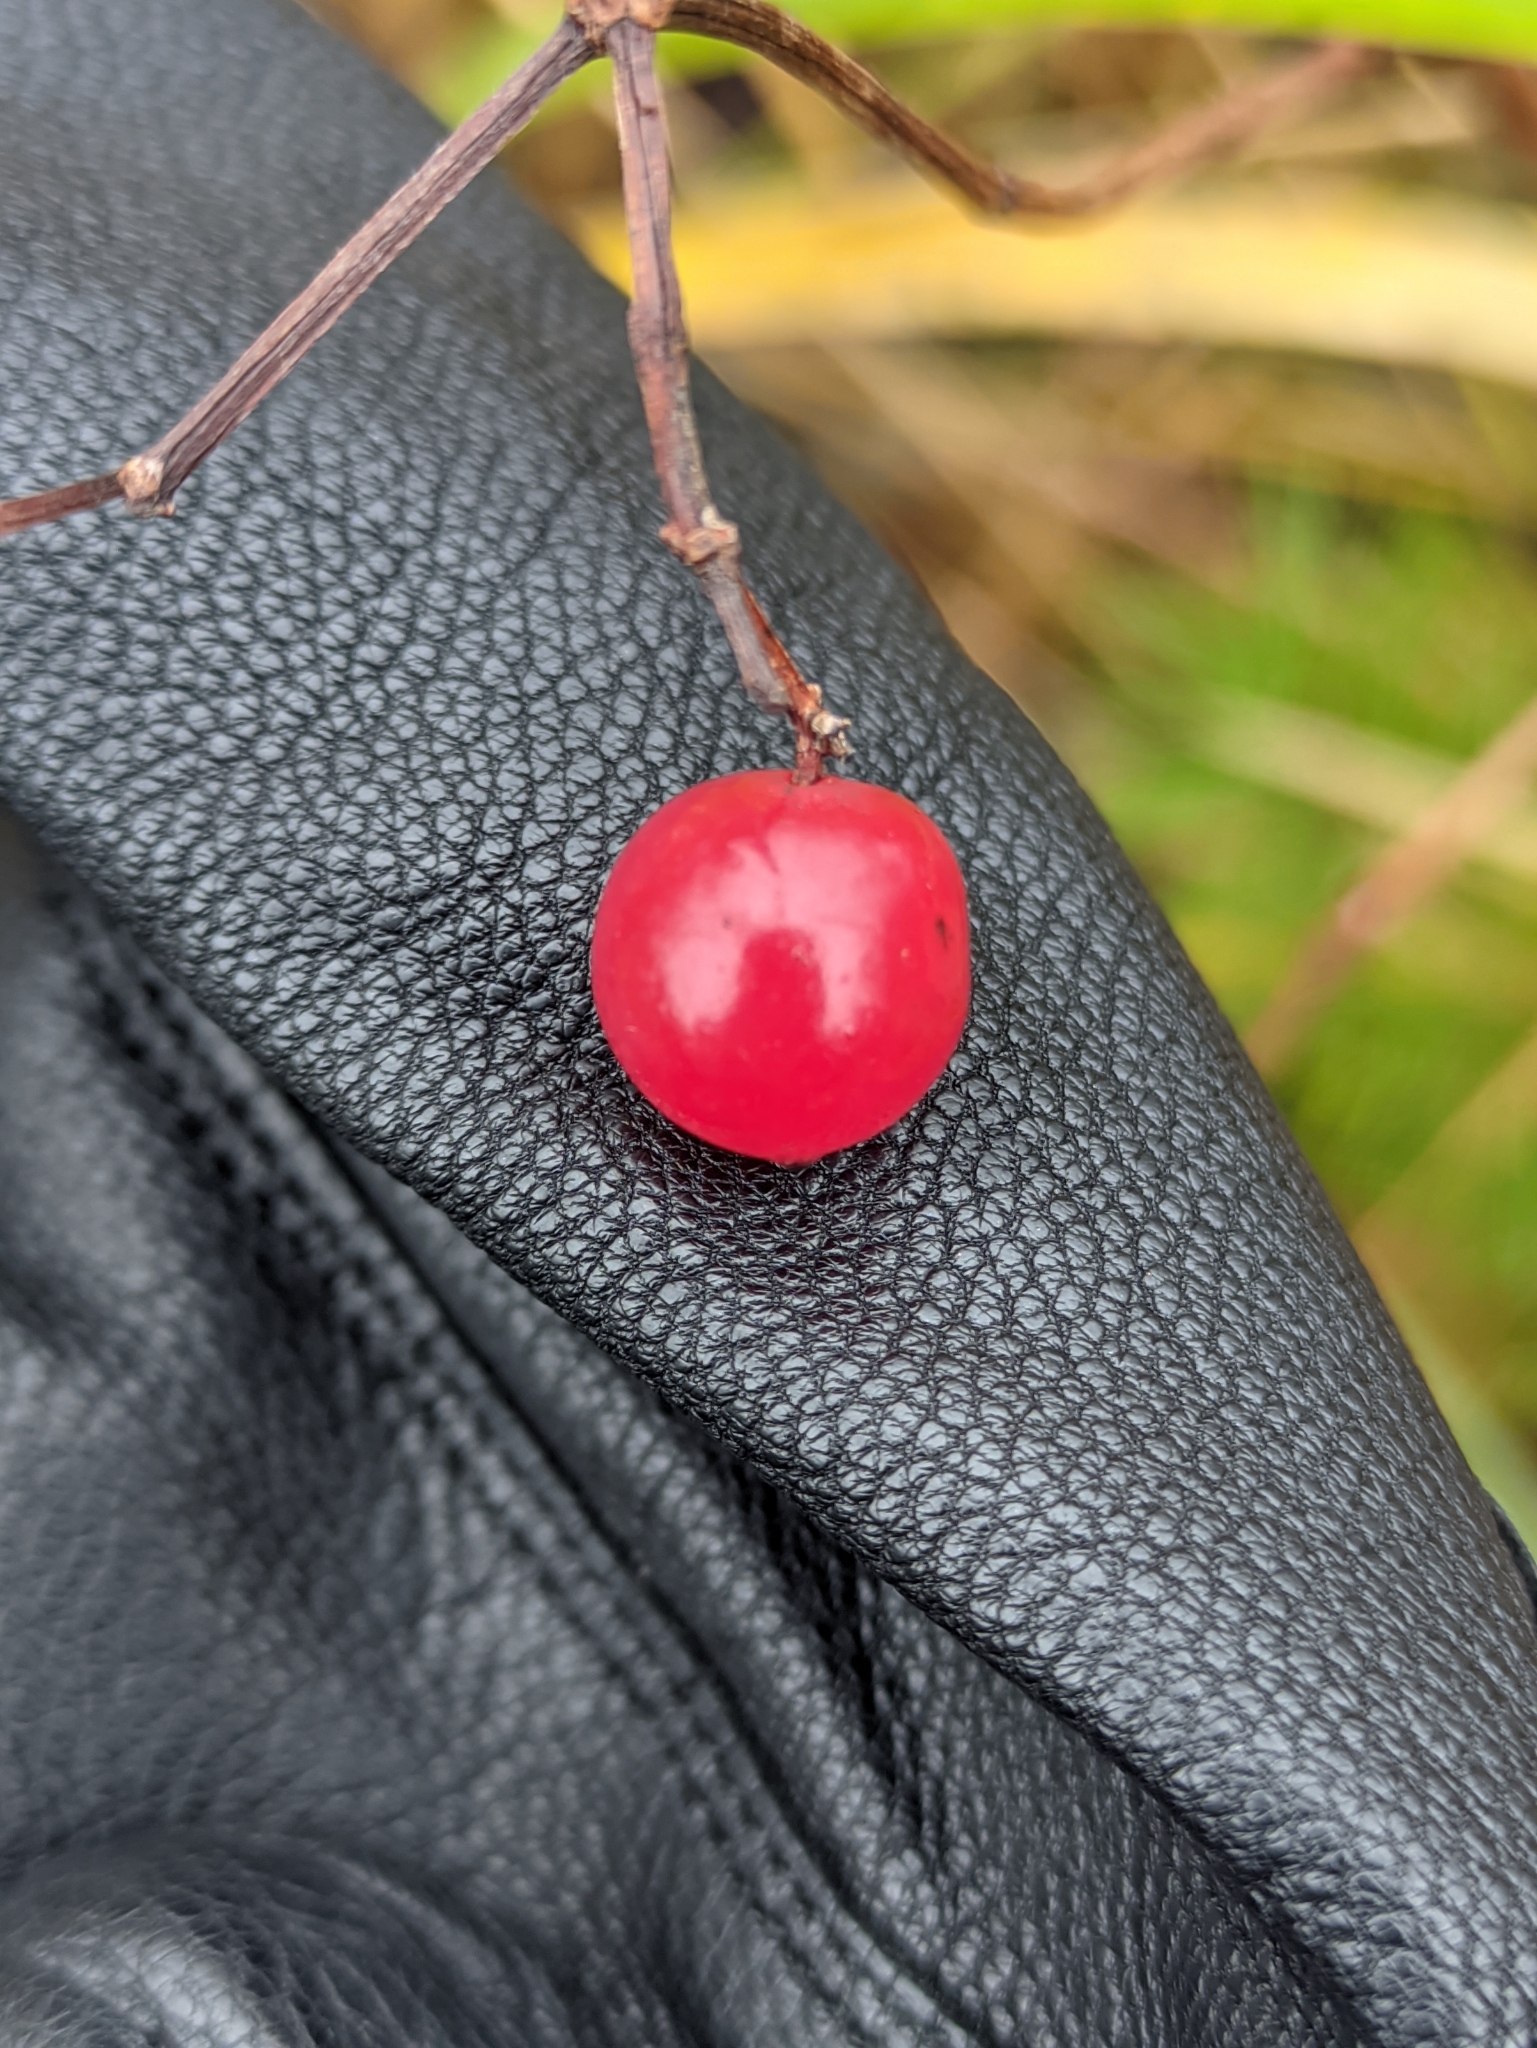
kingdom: Plantae
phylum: Tracheophyta
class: Magnoliopsida
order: Dipsacales
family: Viburnaceae
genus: Viburnum
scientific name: Viburnum opulus
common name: Guelder-rose
